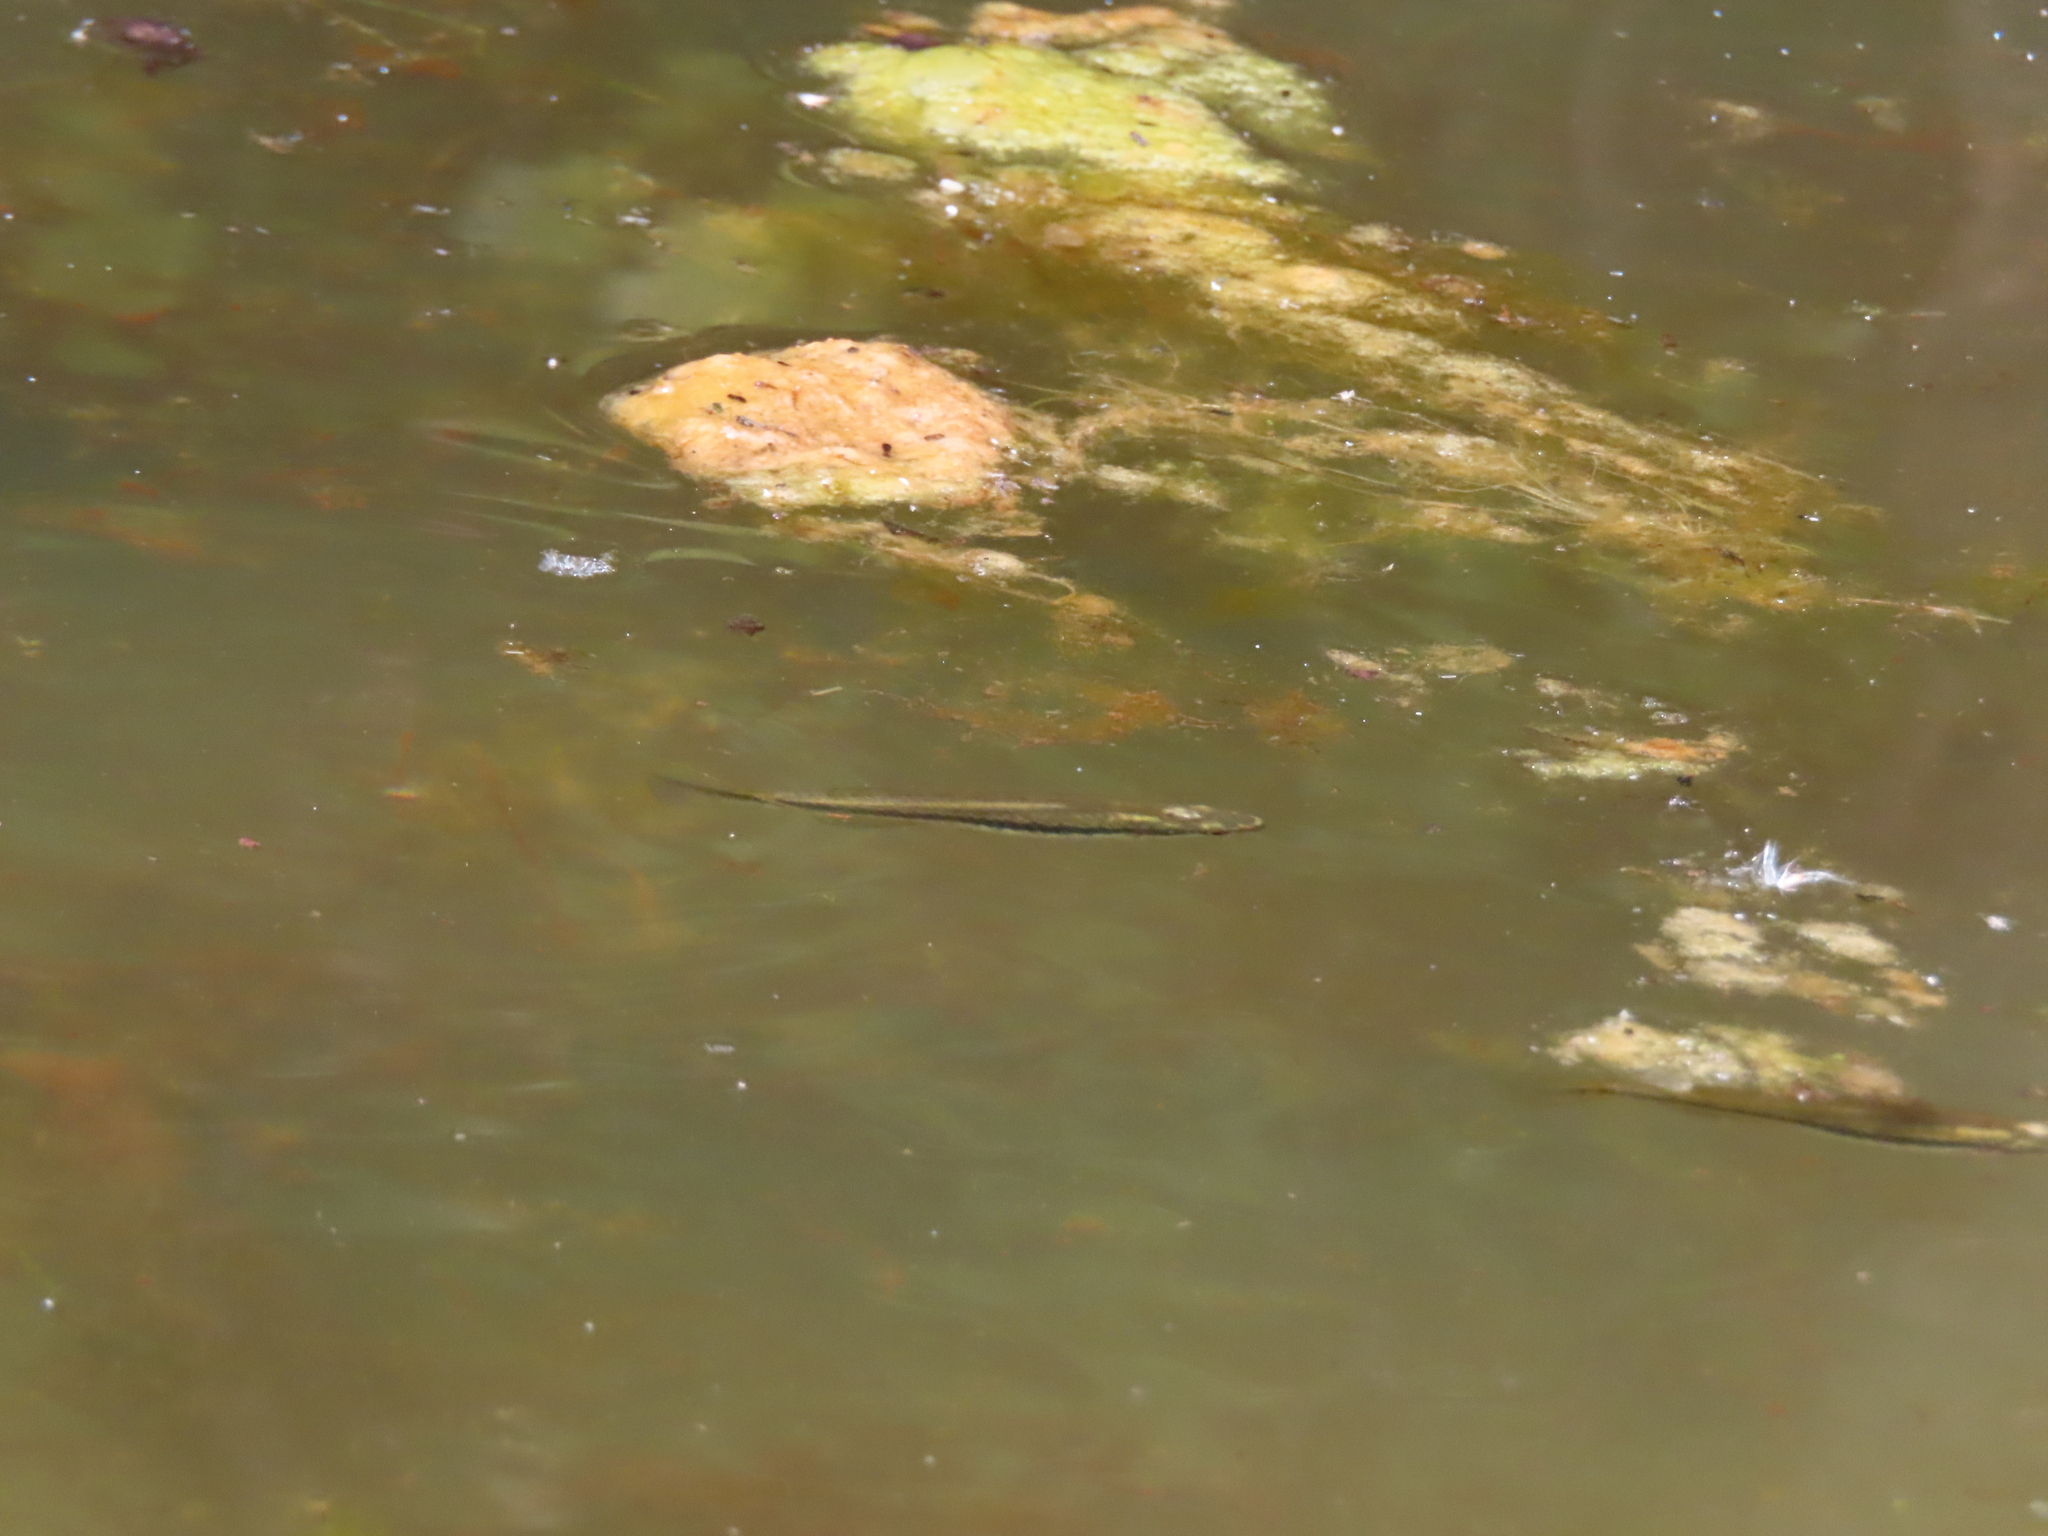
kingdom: Animalia
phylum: Chordata
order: Cyprinodontiformes
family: Fundulidae
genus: Fundulus
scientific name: Fundulus notatus
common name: Blackstripe topminnow
